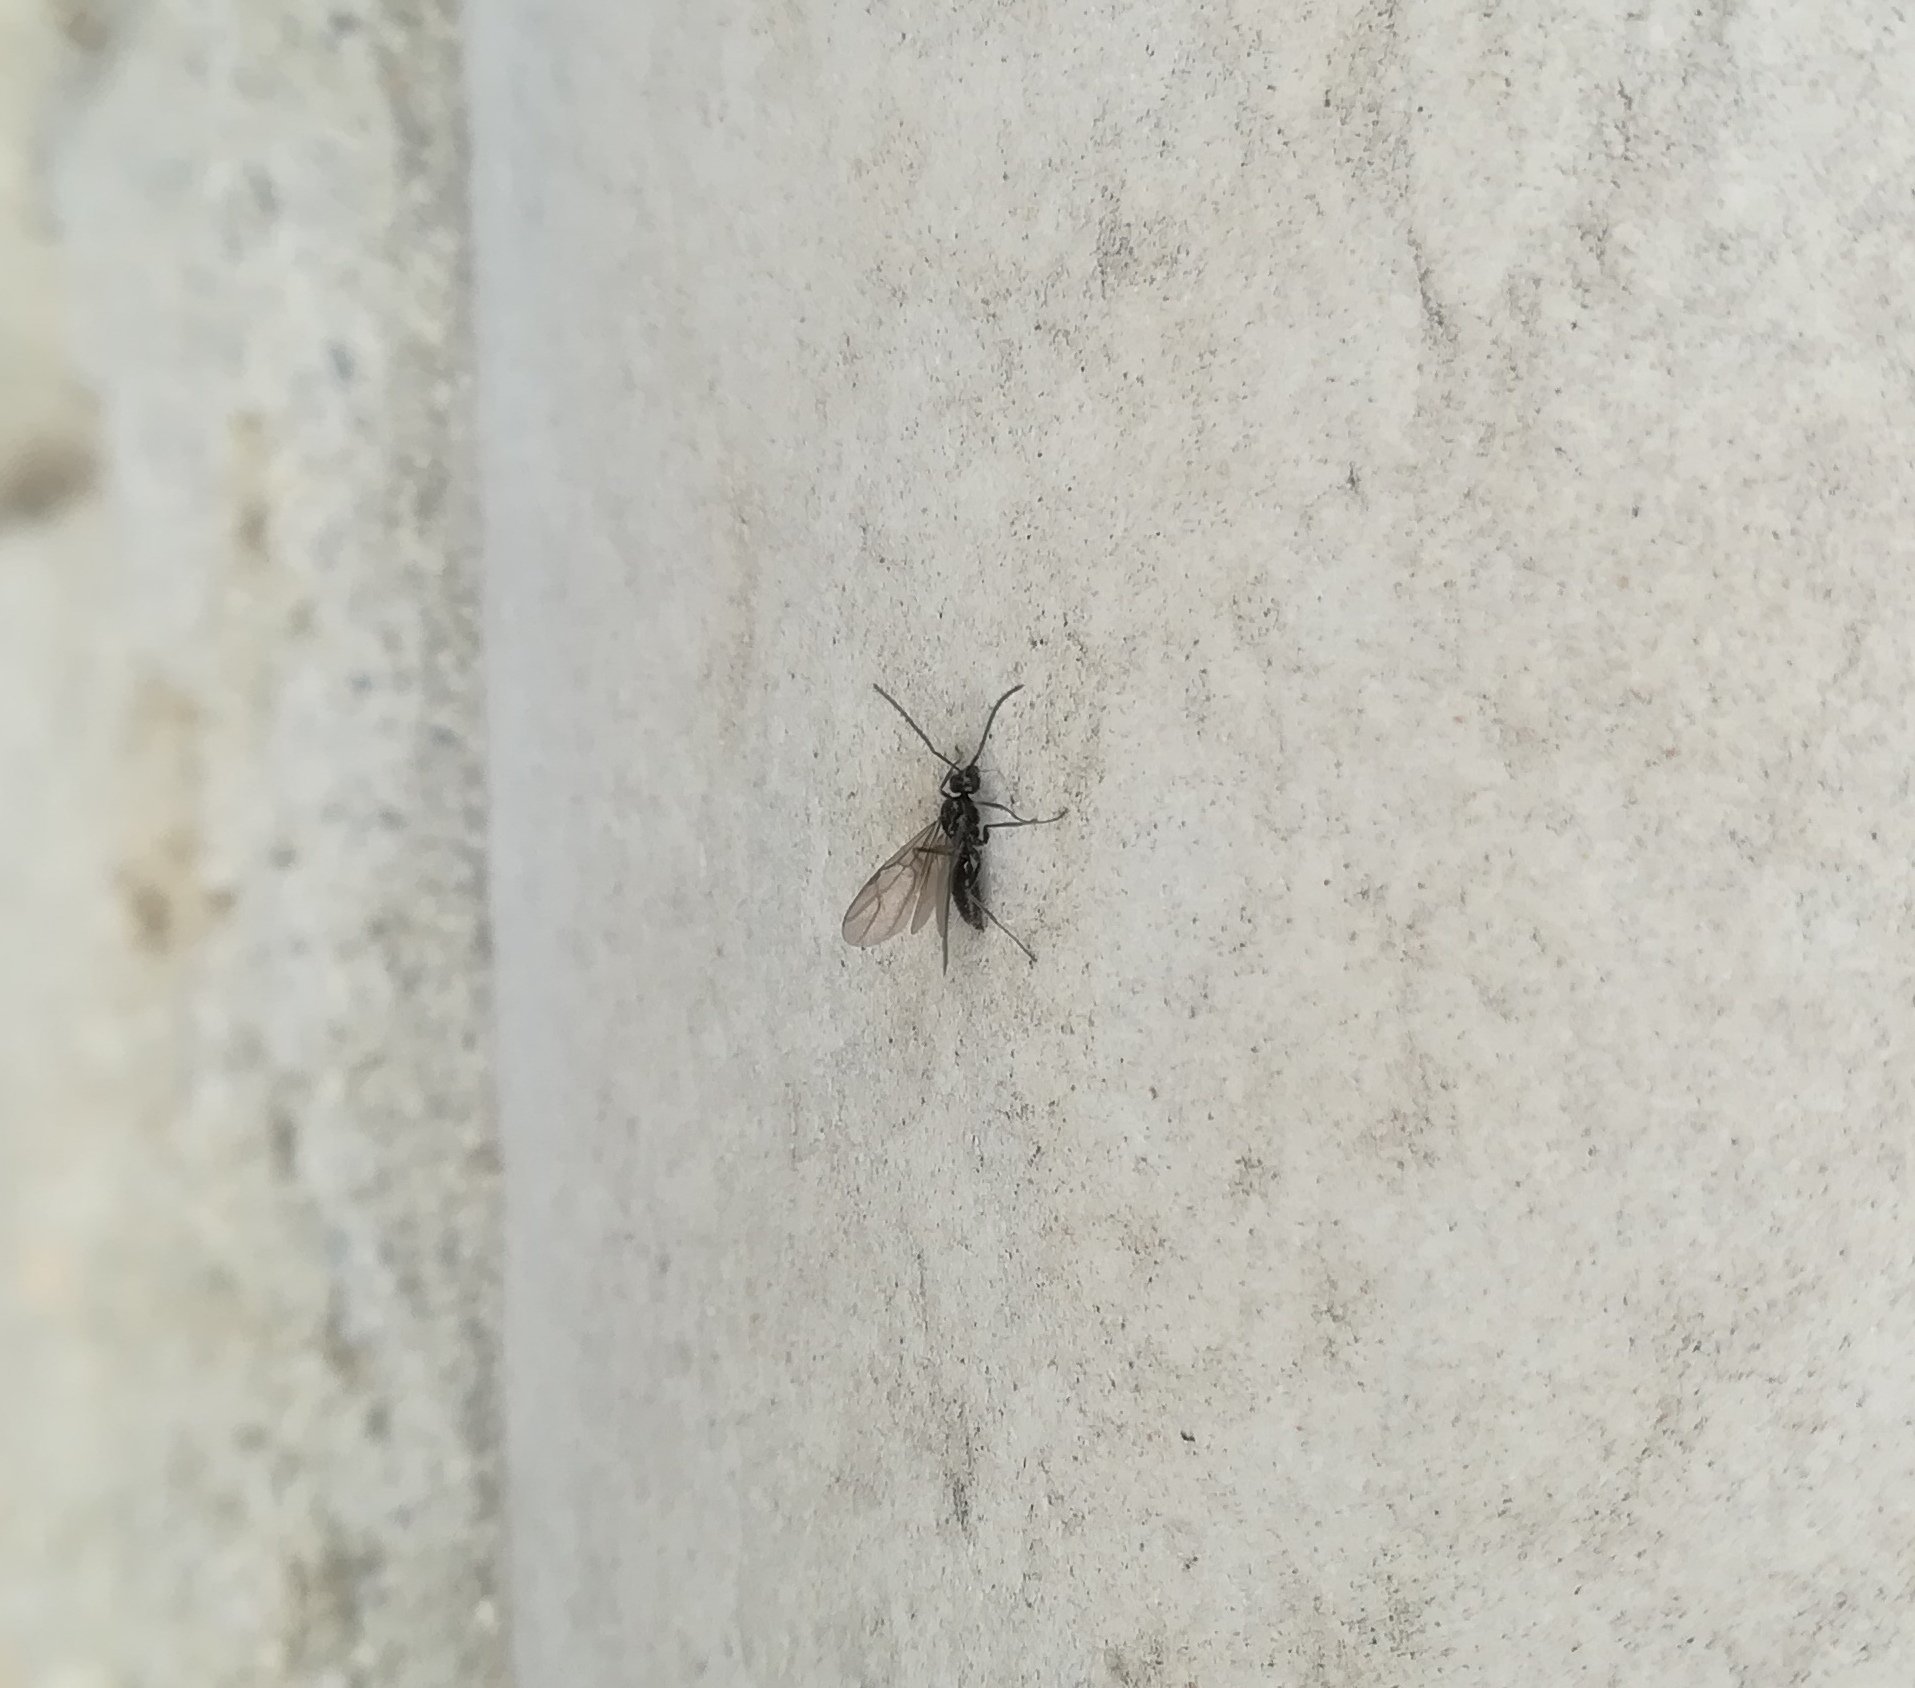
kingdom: Animalia
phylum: Arthropoda
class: Insecta
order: Hymenoptera
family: Formicidae
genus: Prenolepis
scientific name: Prenolepis nitens
